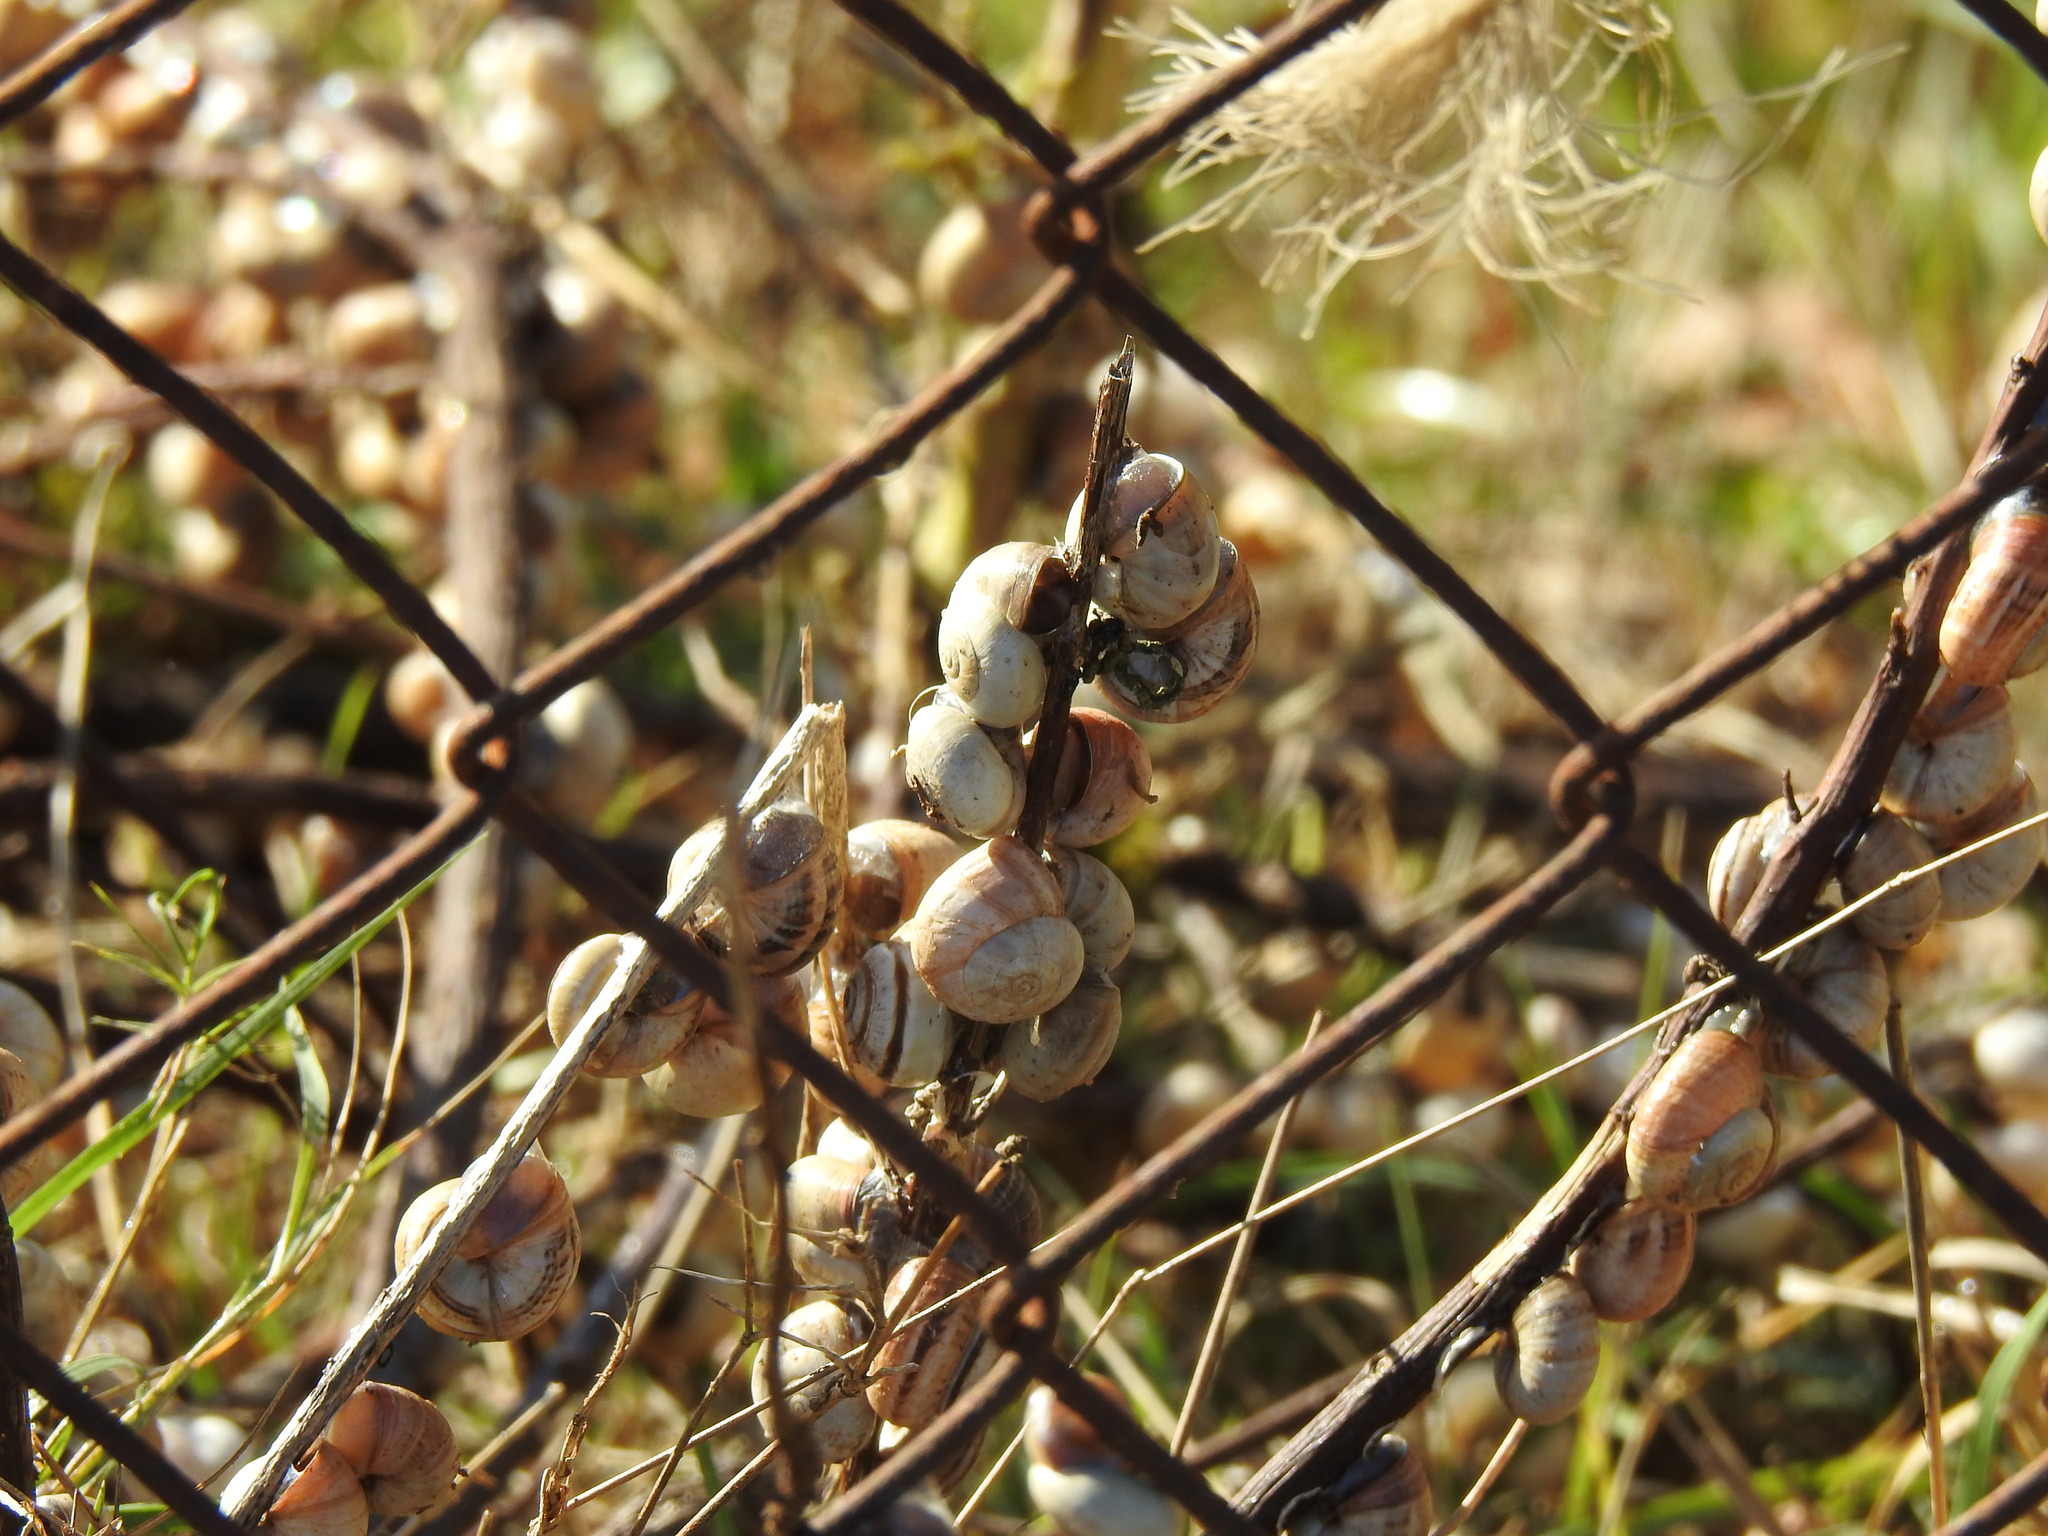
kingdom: Animalia
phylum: Mollusca
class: Gastropoda
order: Stylommatophora
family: Helicidae
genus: Theba
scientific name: Theba pisana
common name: White snail
